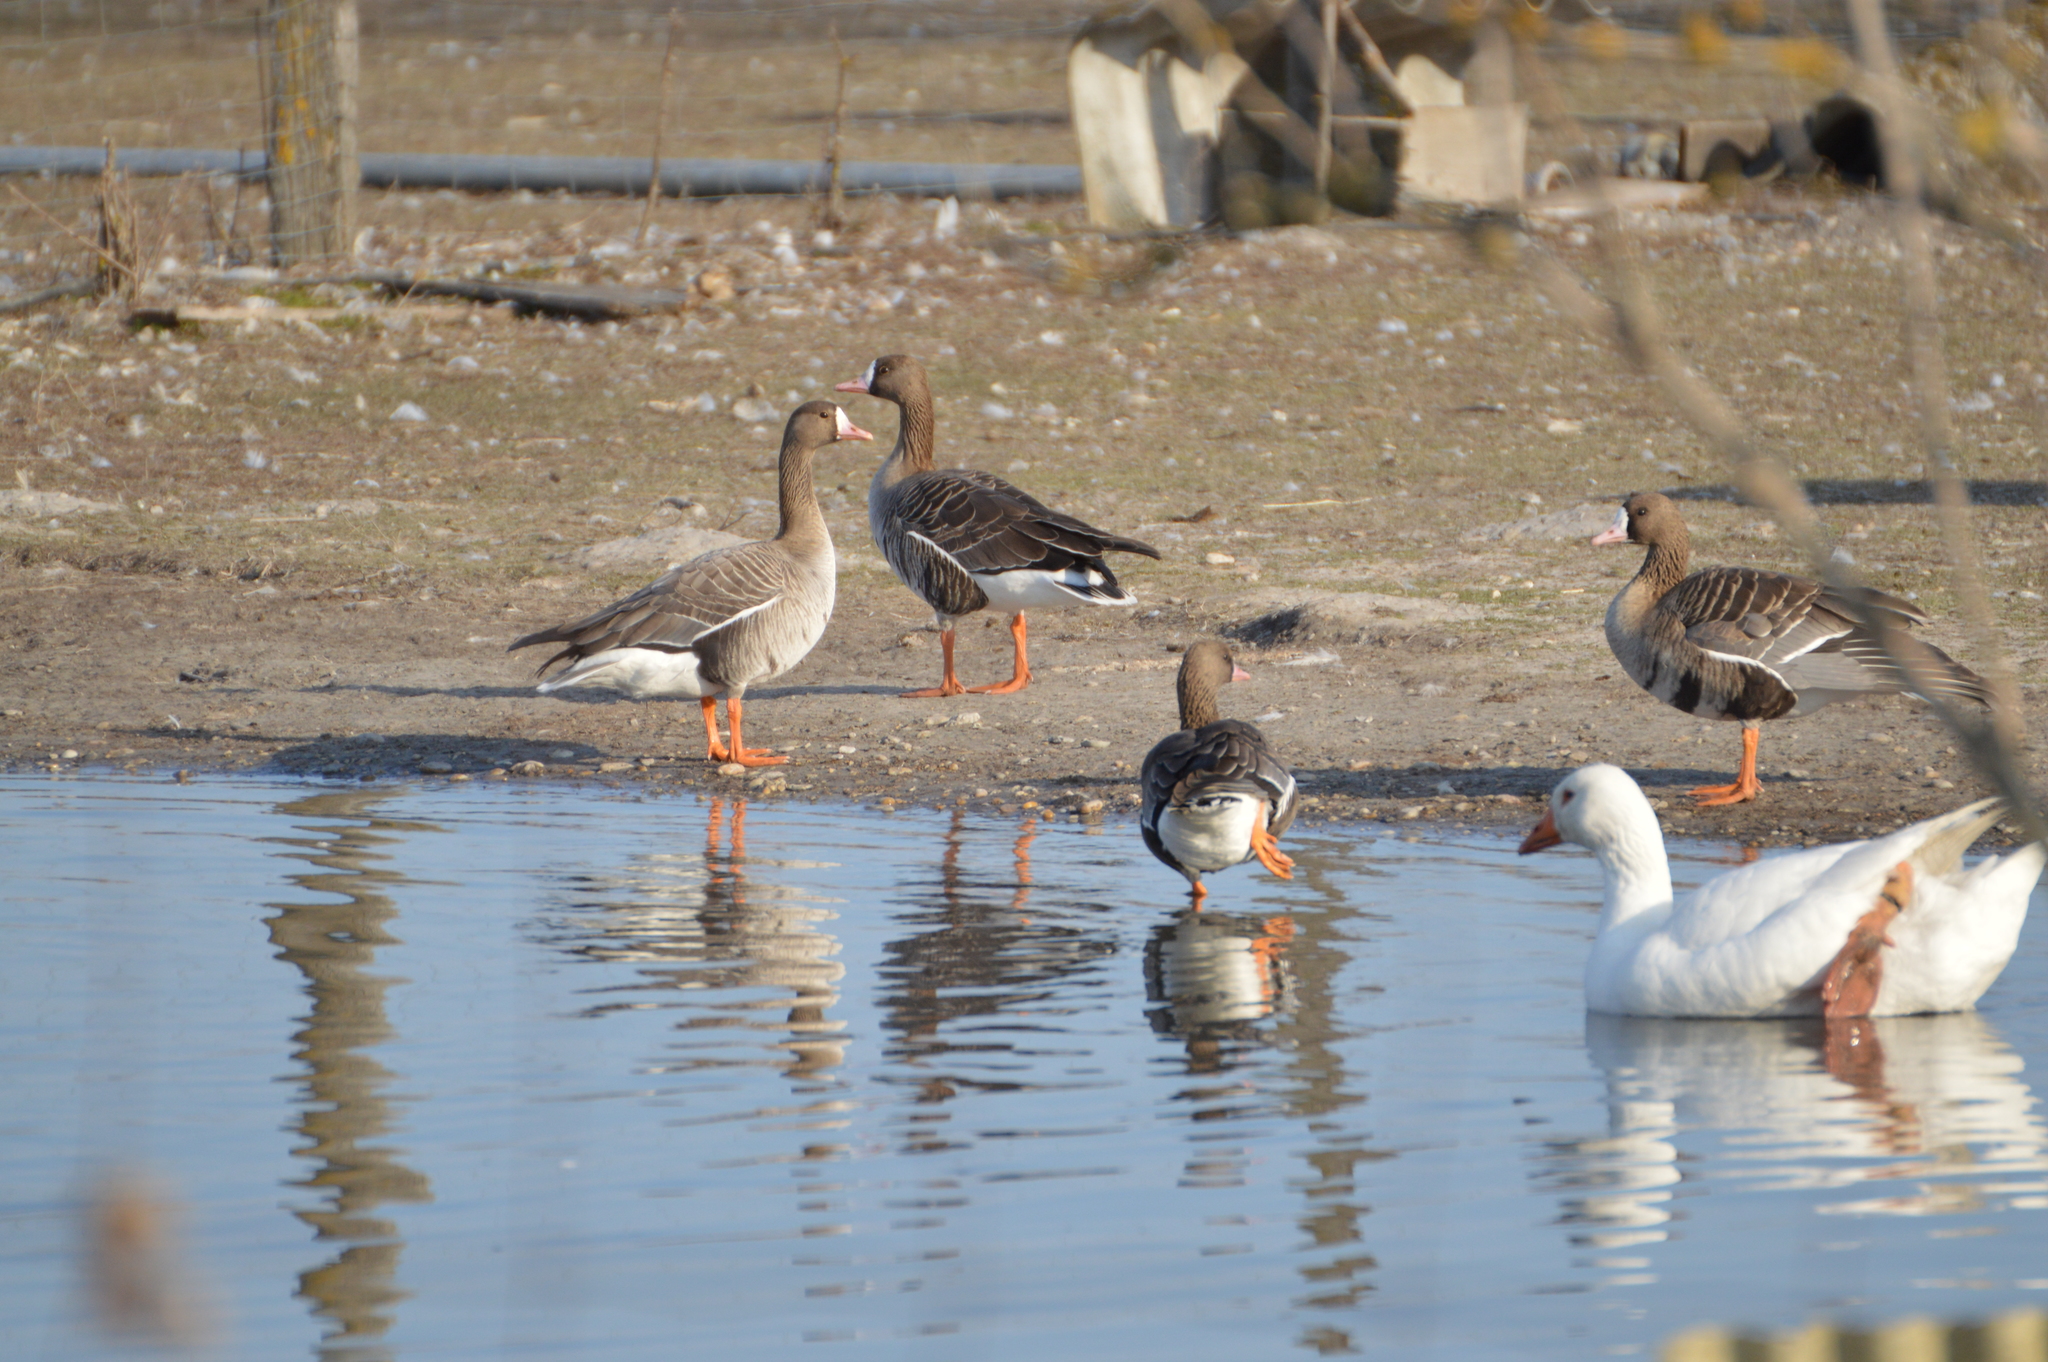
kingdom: Animalia
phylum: Chordata
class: Aves
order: Anseriformes
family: Anatidae
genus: Anser
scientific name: Anser albifrons
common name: Greater white-fronted goose
